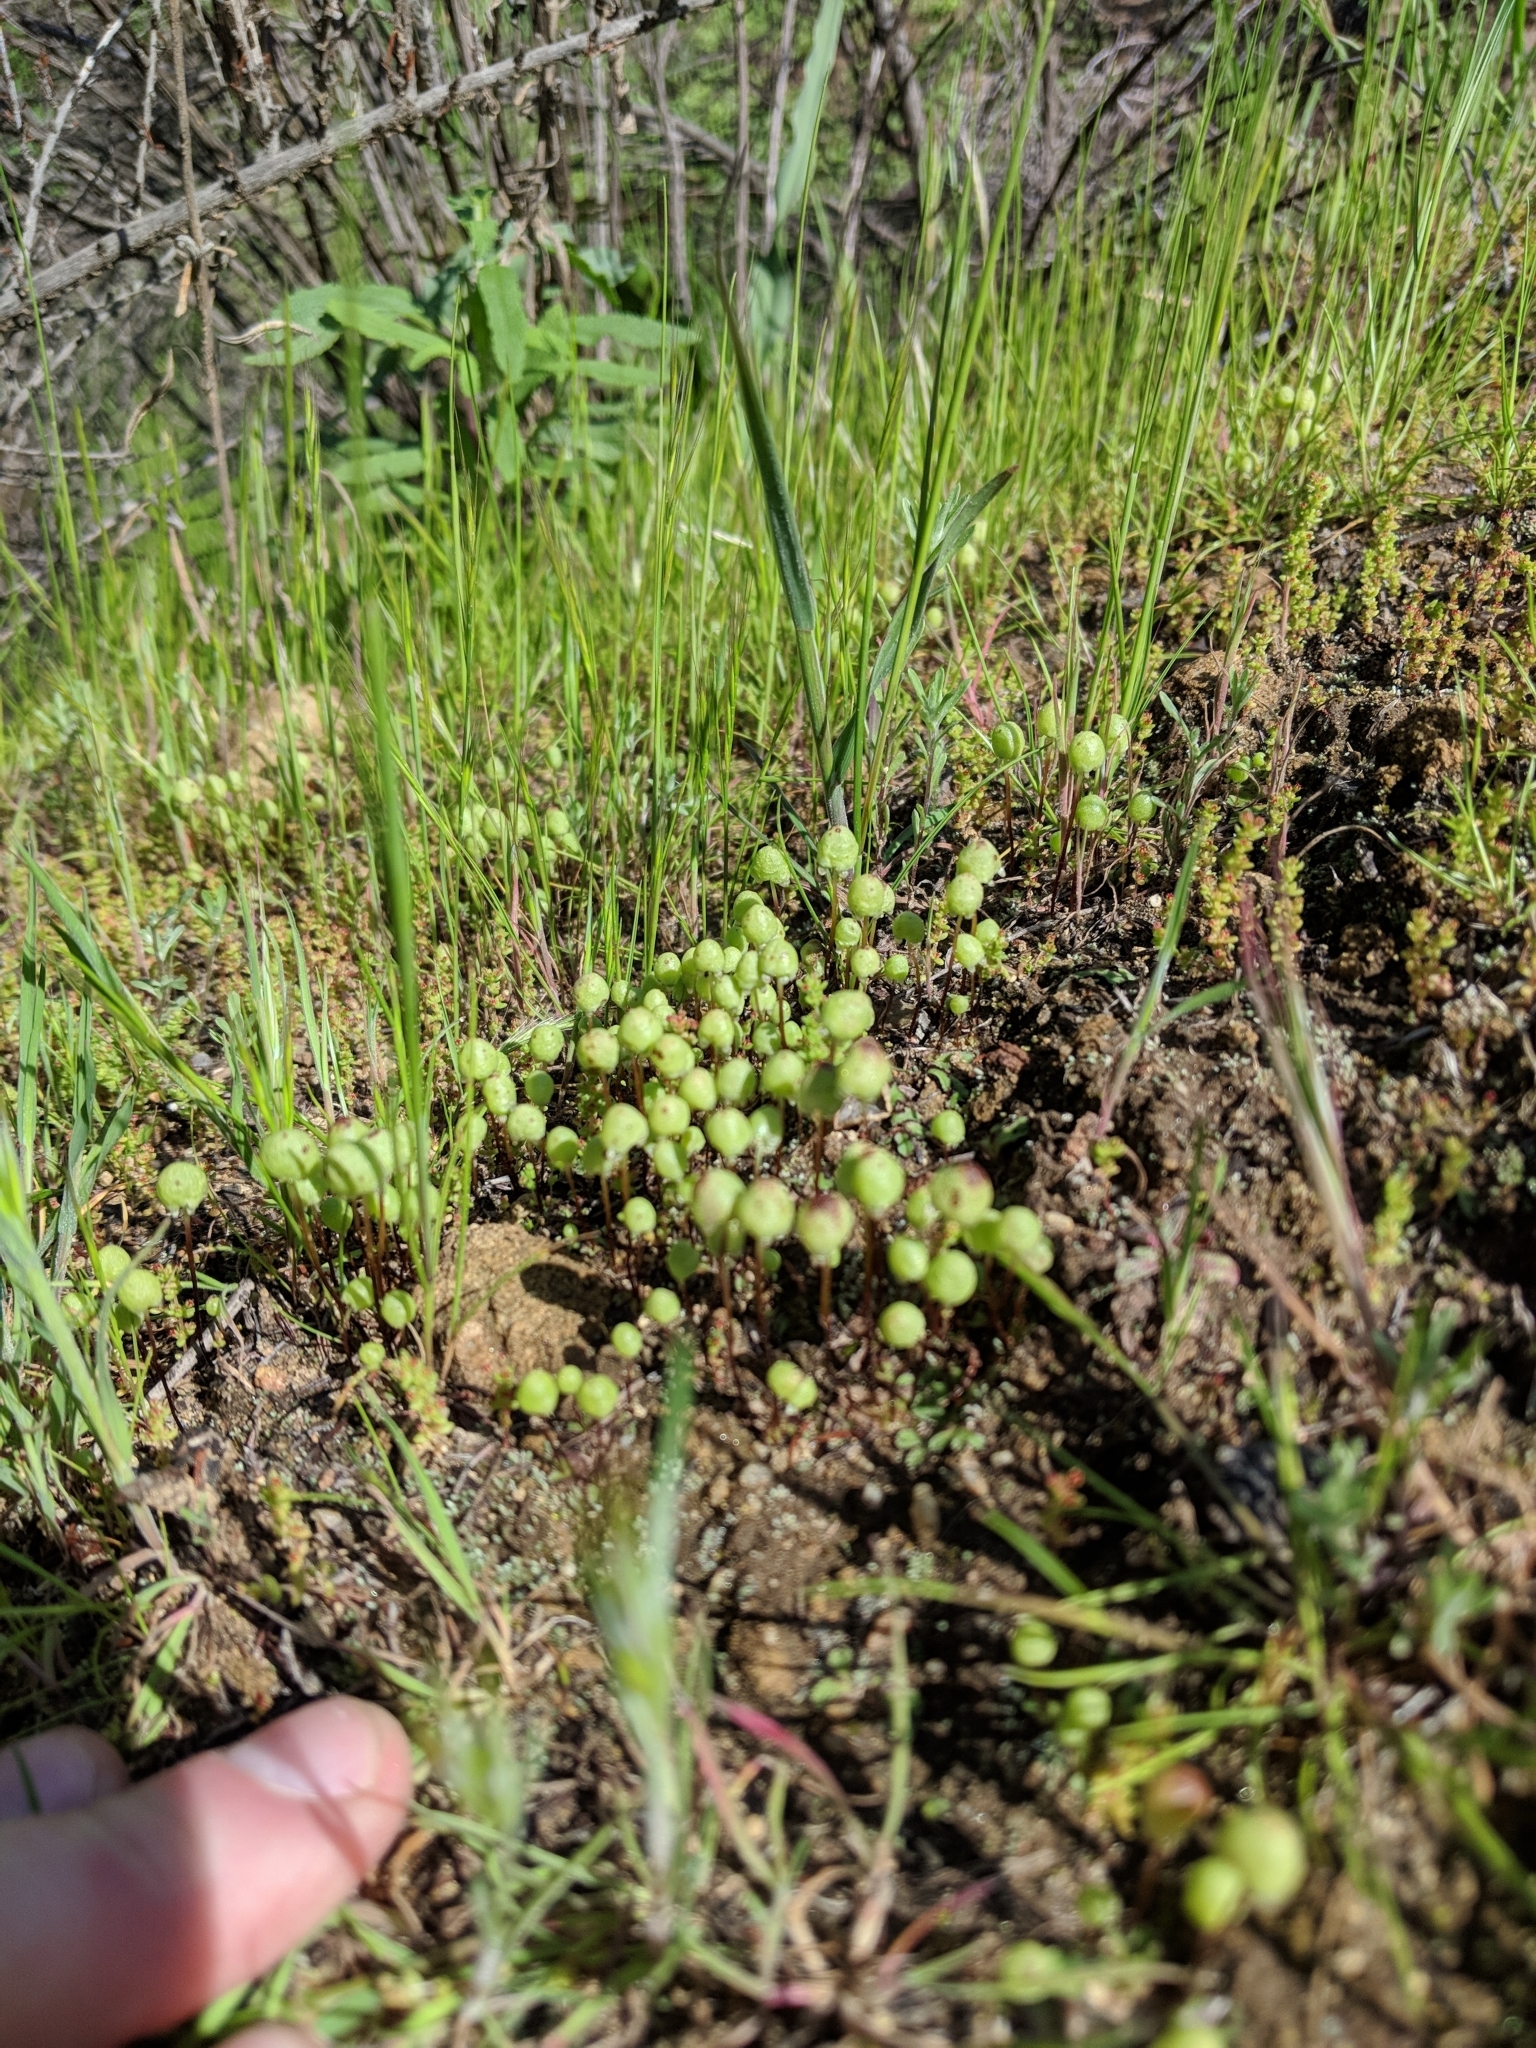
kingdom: Plantae
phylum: Marchantiophyta
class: Marchantiopsida
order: Marchantiales
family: Aytoniaceae
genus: Asterella
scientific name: Asterella palmeri
